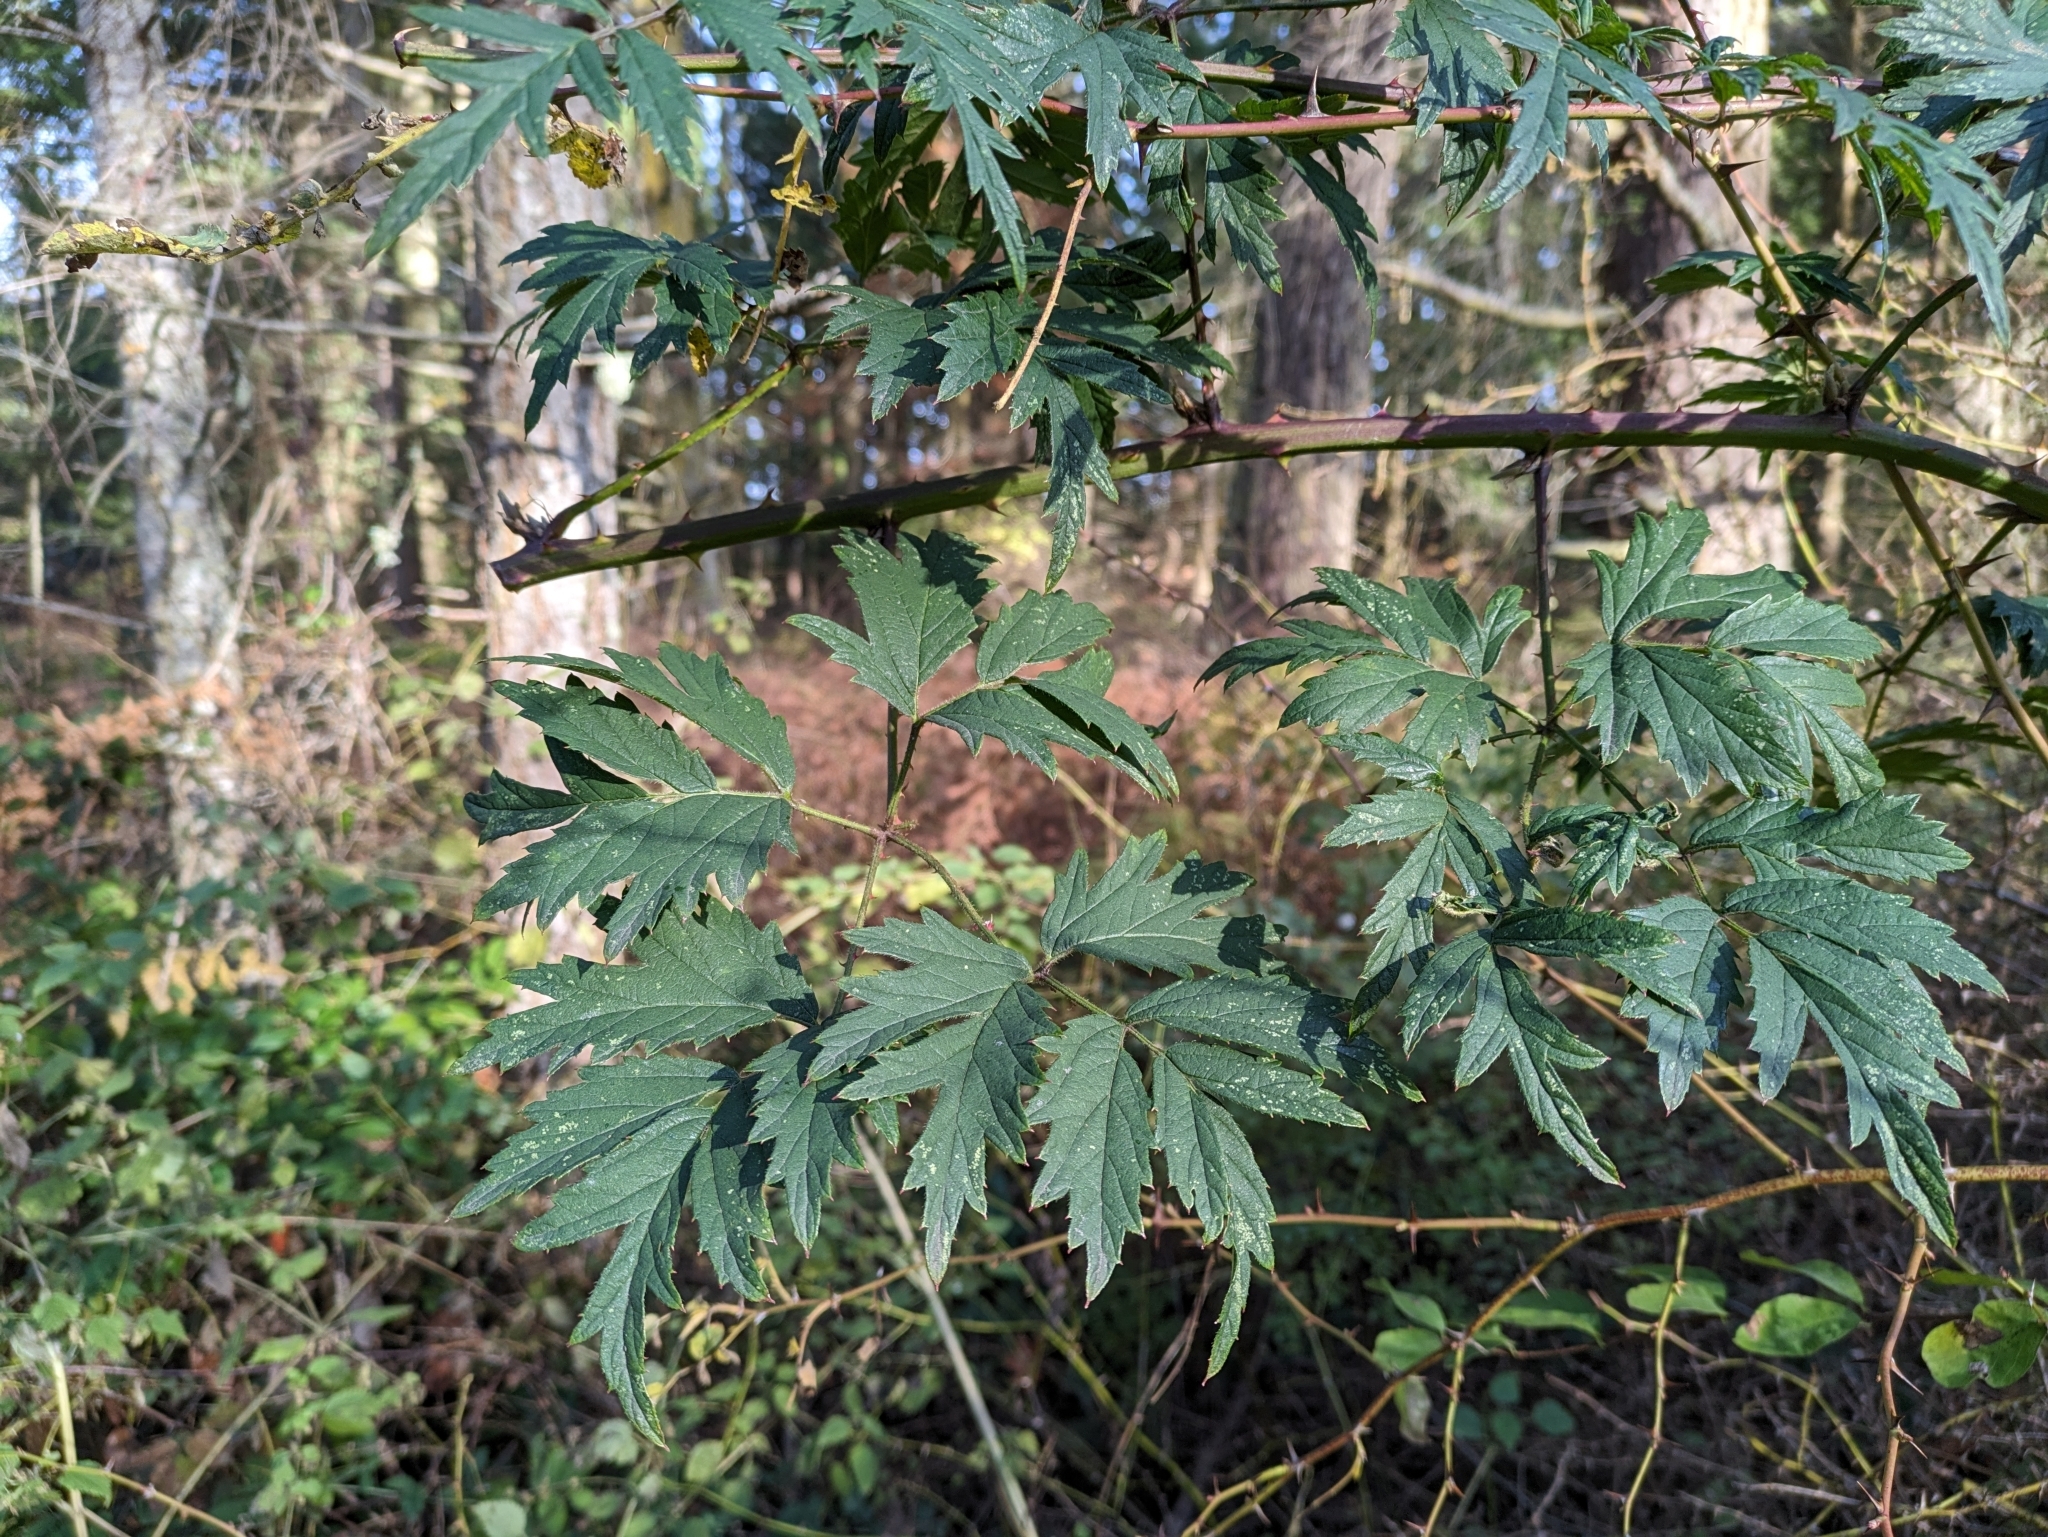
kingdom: Plantae
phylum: Tracheophyta
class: Magnoliopsida
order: Rosales
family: Rosaceae
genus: Rubus
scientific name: Rubus laciniatus
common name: Evergreen blackberry
